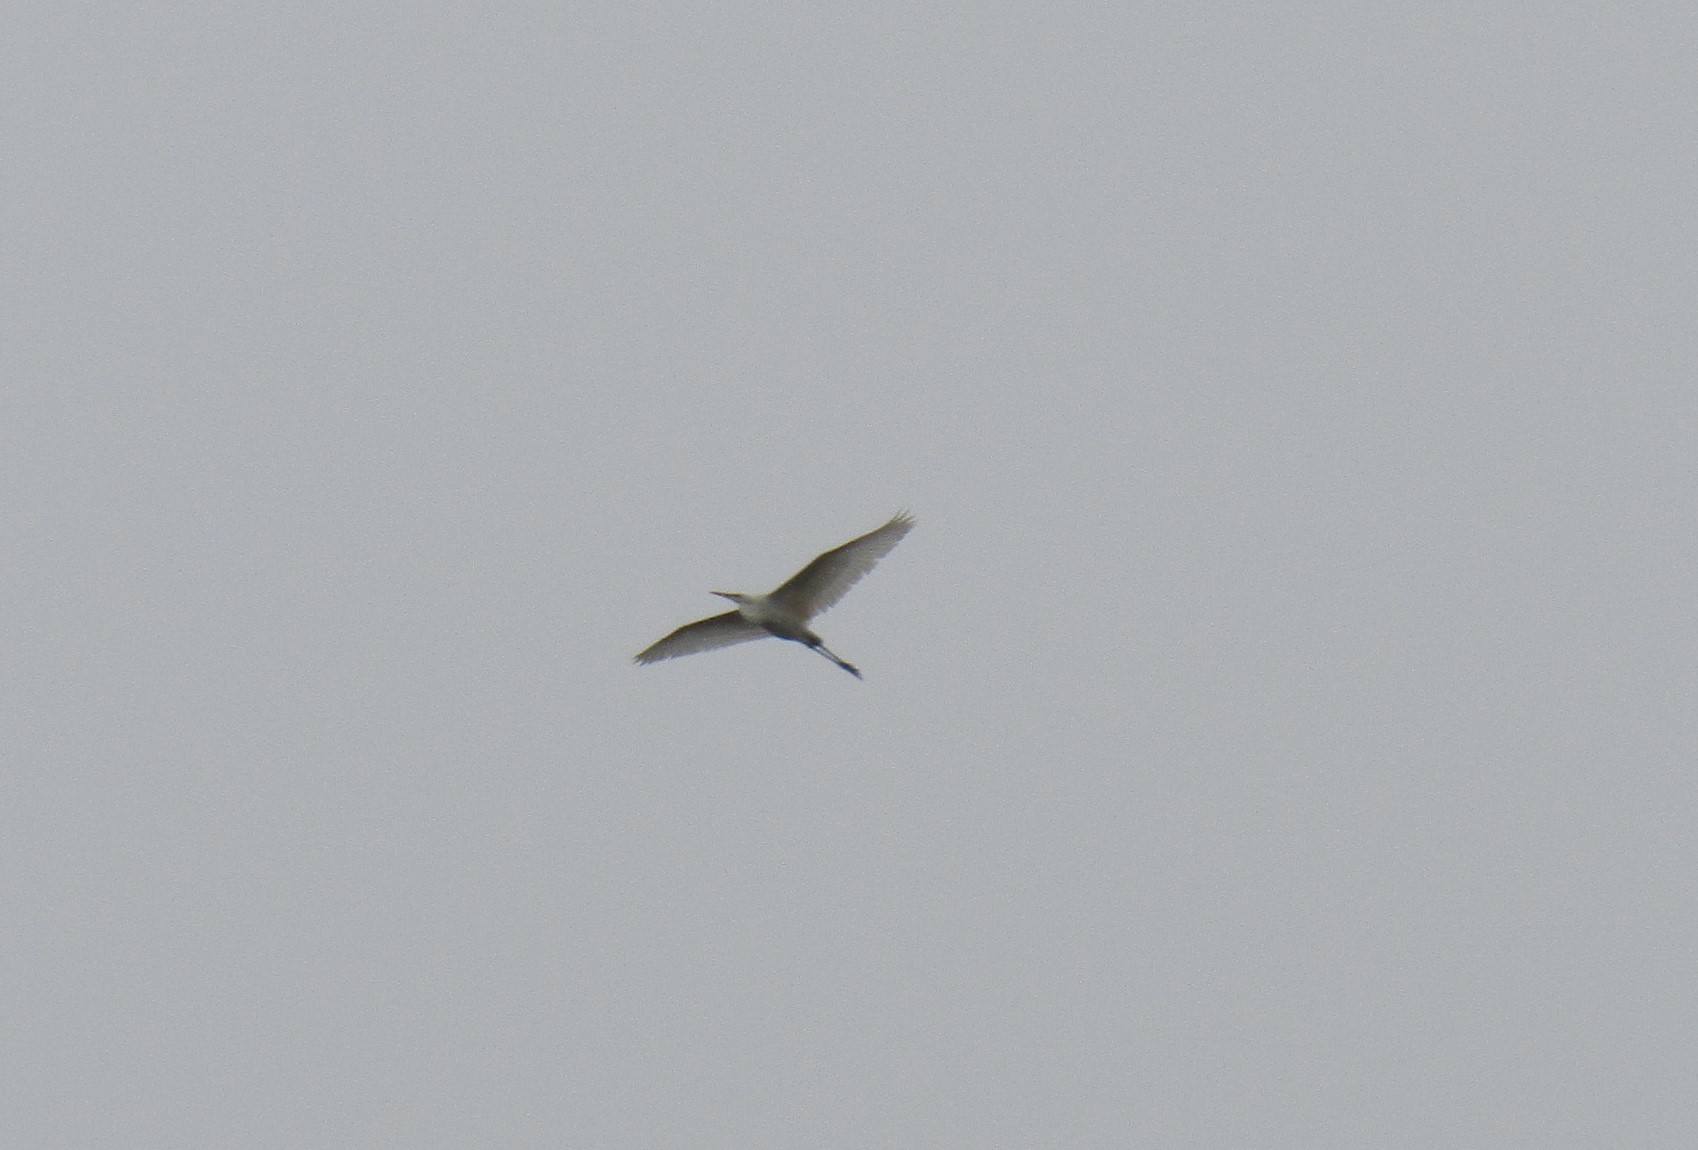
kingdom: Animalia
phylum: Chordata
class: Aves
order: Pelecaniformes
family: Ardeidae
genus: Ardea
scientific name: Ardea alba
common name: Great egret
